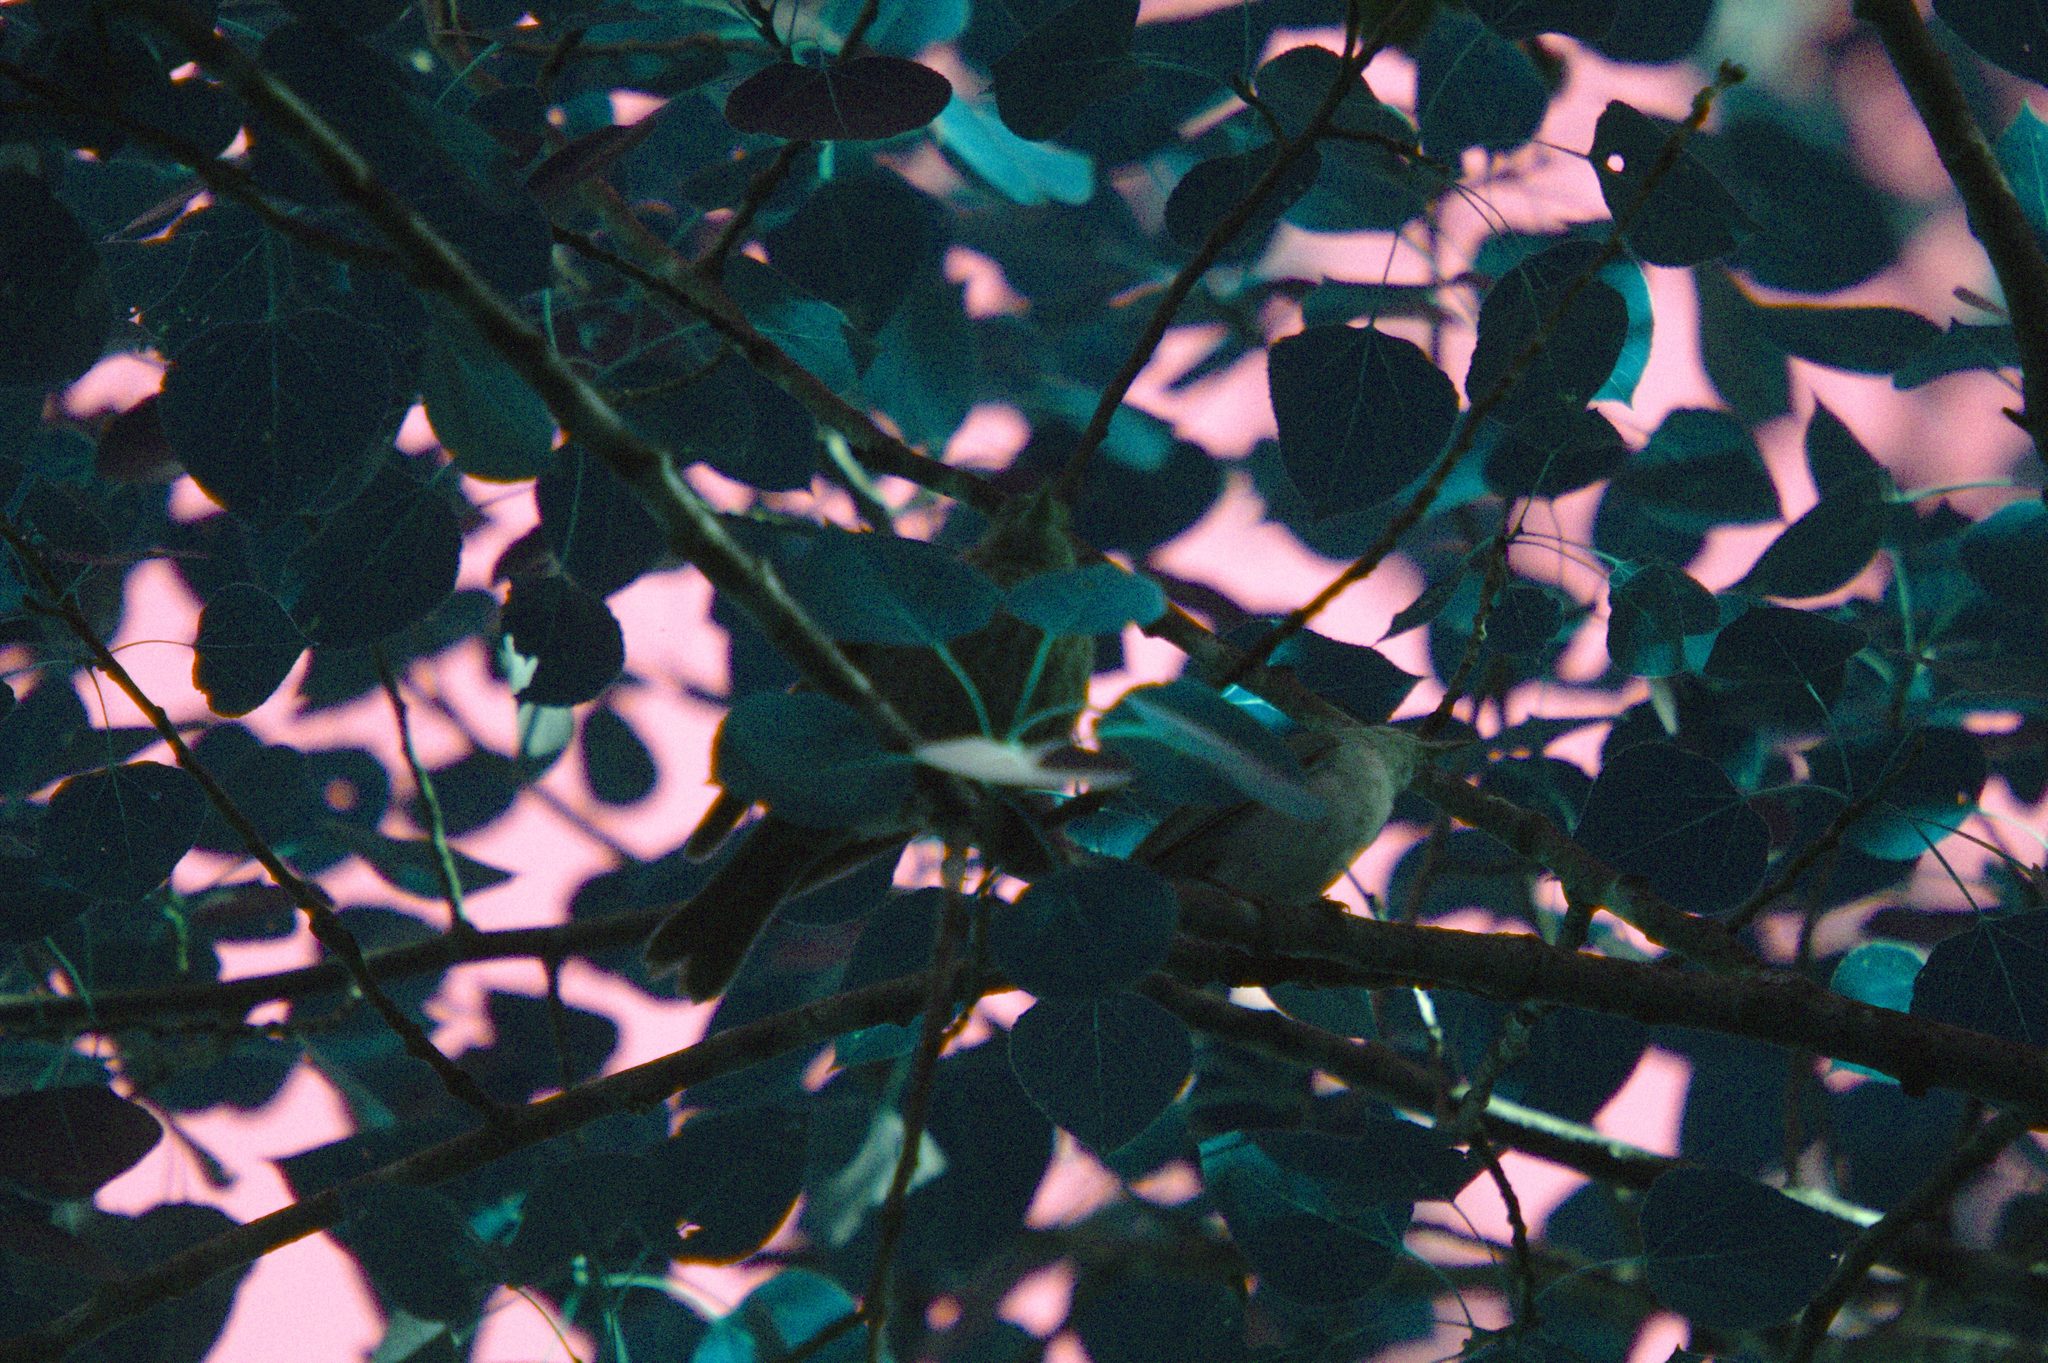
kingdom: Animalia
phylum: Chordata
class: Aves
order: Passeriformes
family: Icteridae
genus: Molothrus
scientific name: Molothrus ater
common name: Brown-headed cowbird
